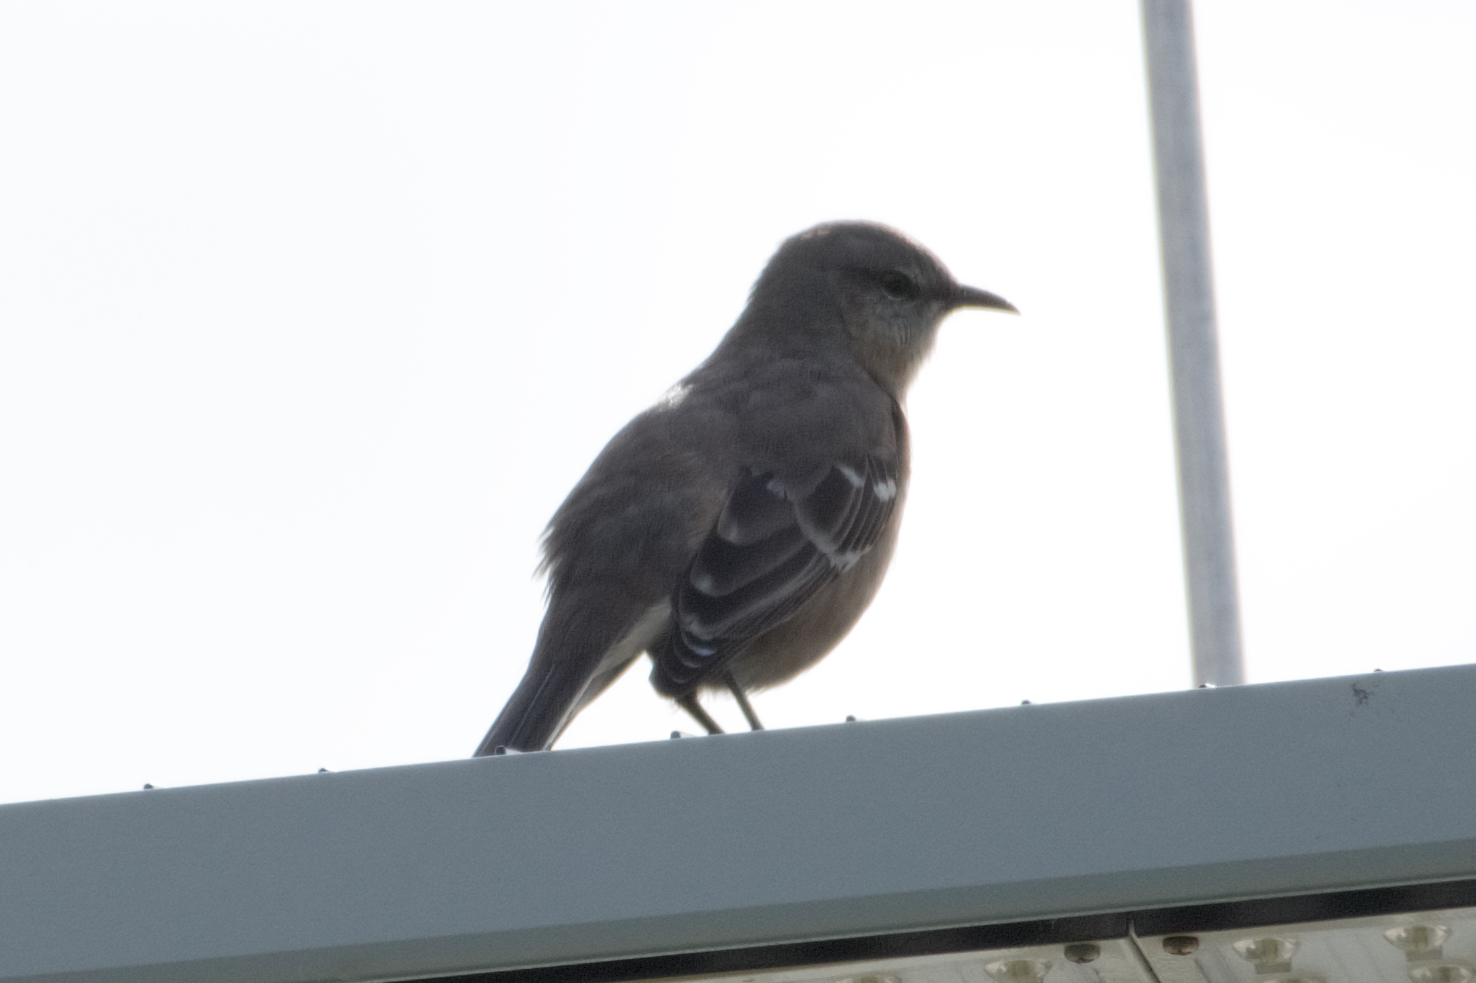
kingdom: Animalia
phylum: Chordata
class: Aves
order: Passeriformes
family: Mimidae
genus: Mimus
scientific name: Mimus polyglottos
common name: Northern mockingbird
